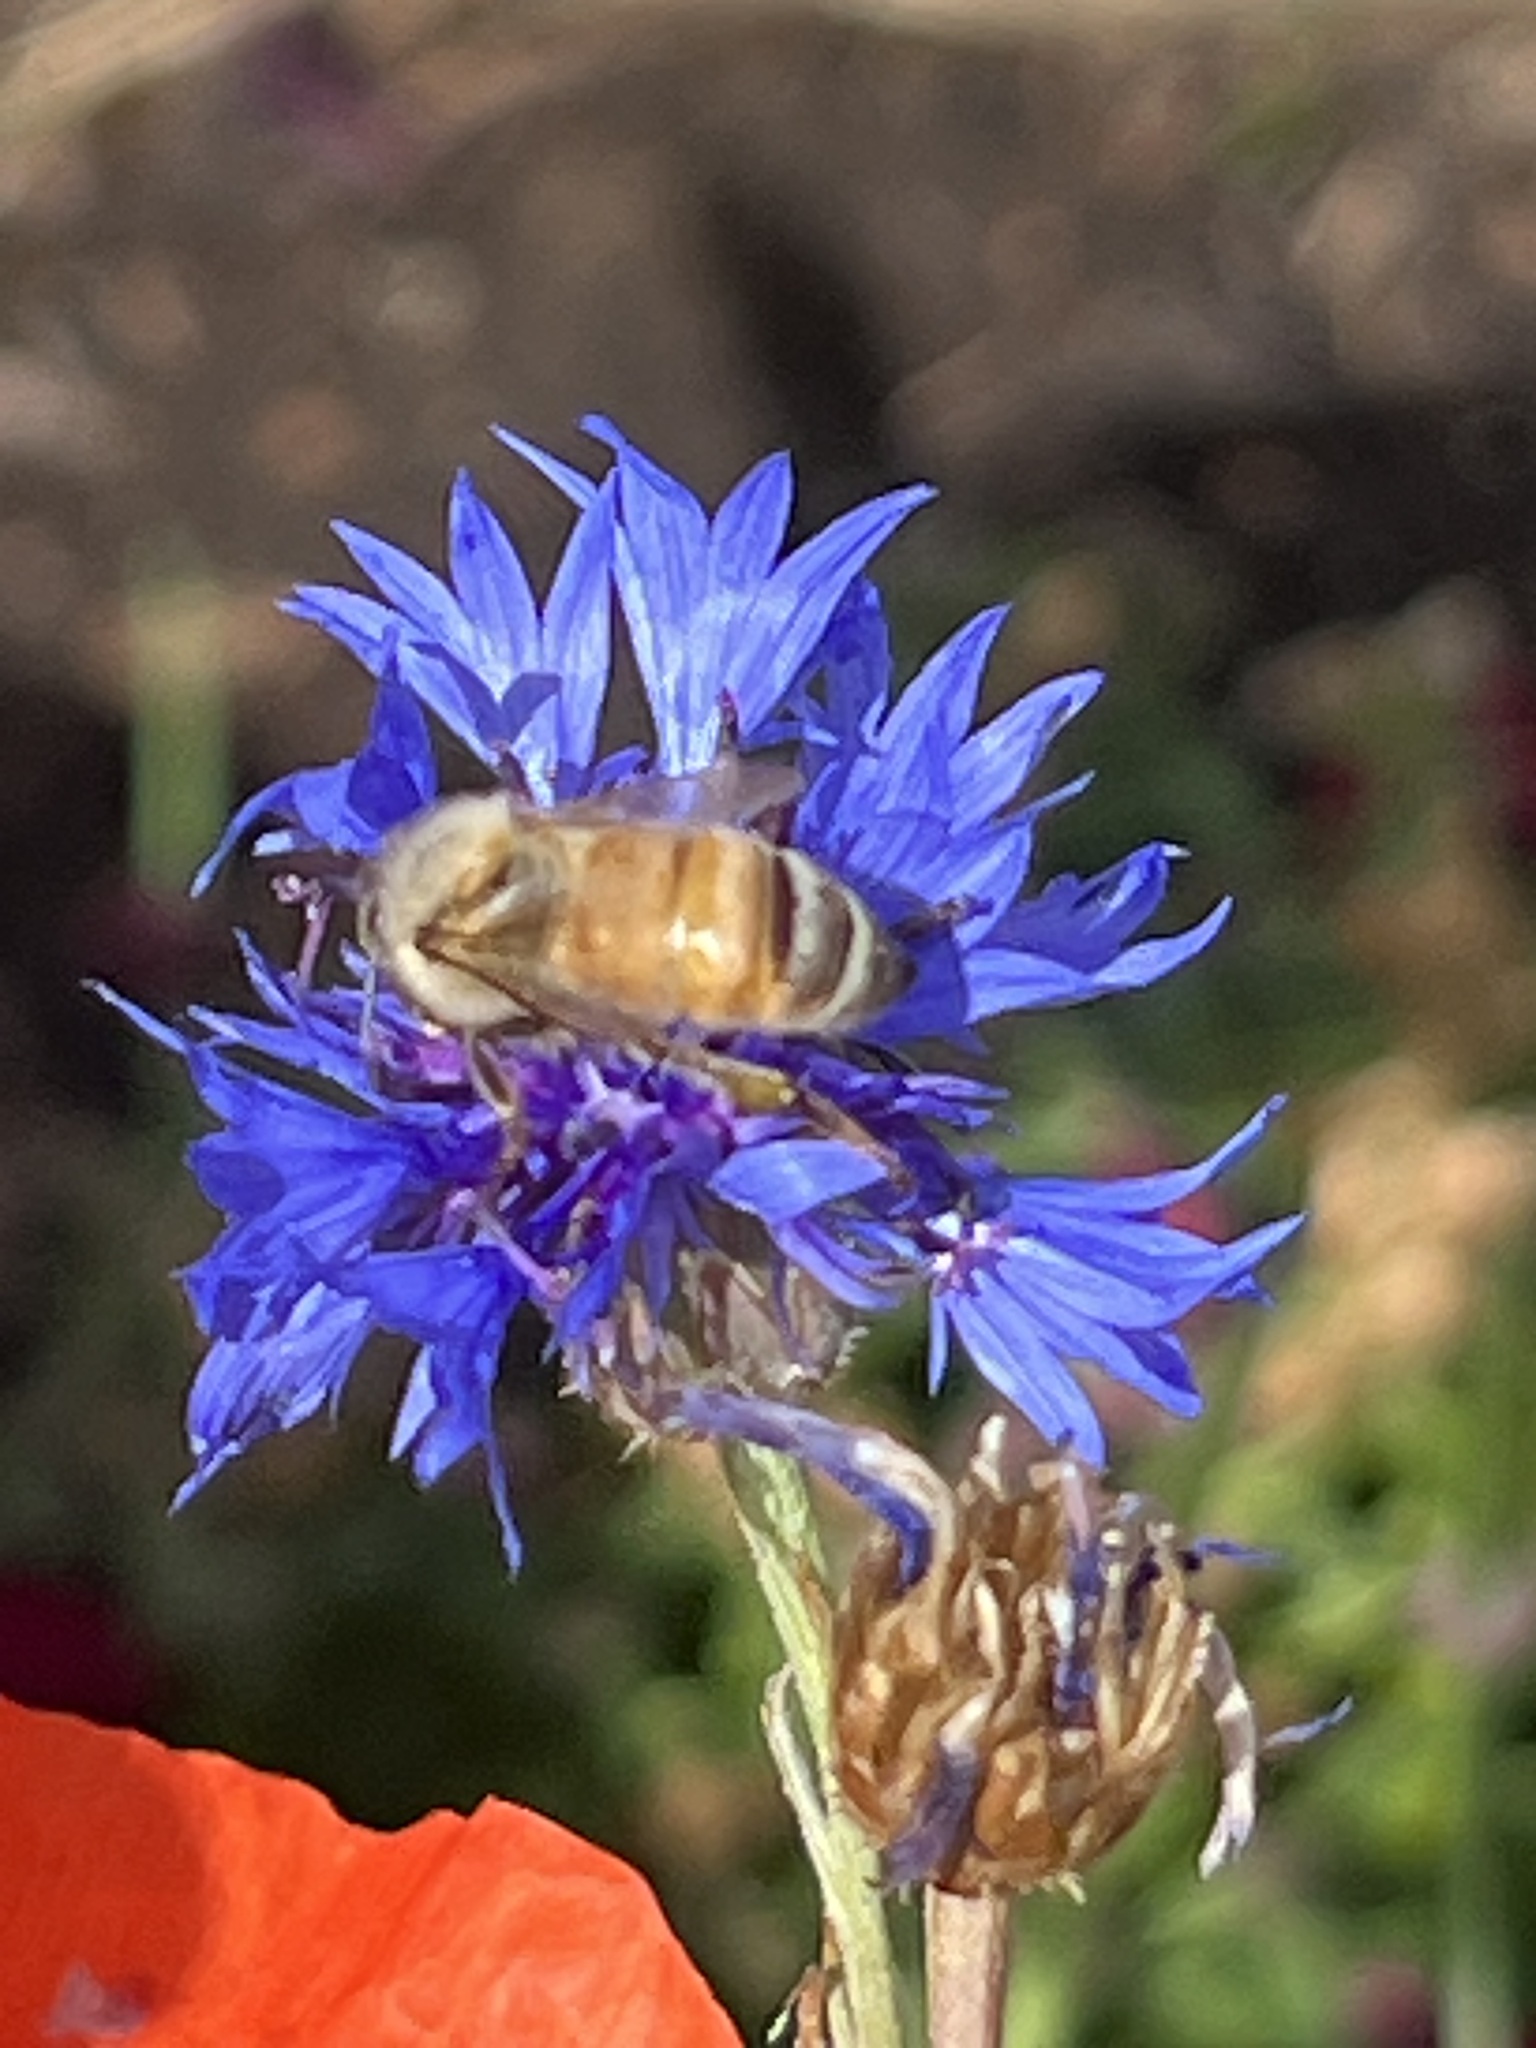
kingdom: Animalia
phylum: Arthropoda
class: Insecta
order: Hymenoptera
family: Apidae
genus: Apis
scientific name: Apis mellifera
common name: Honey bee
